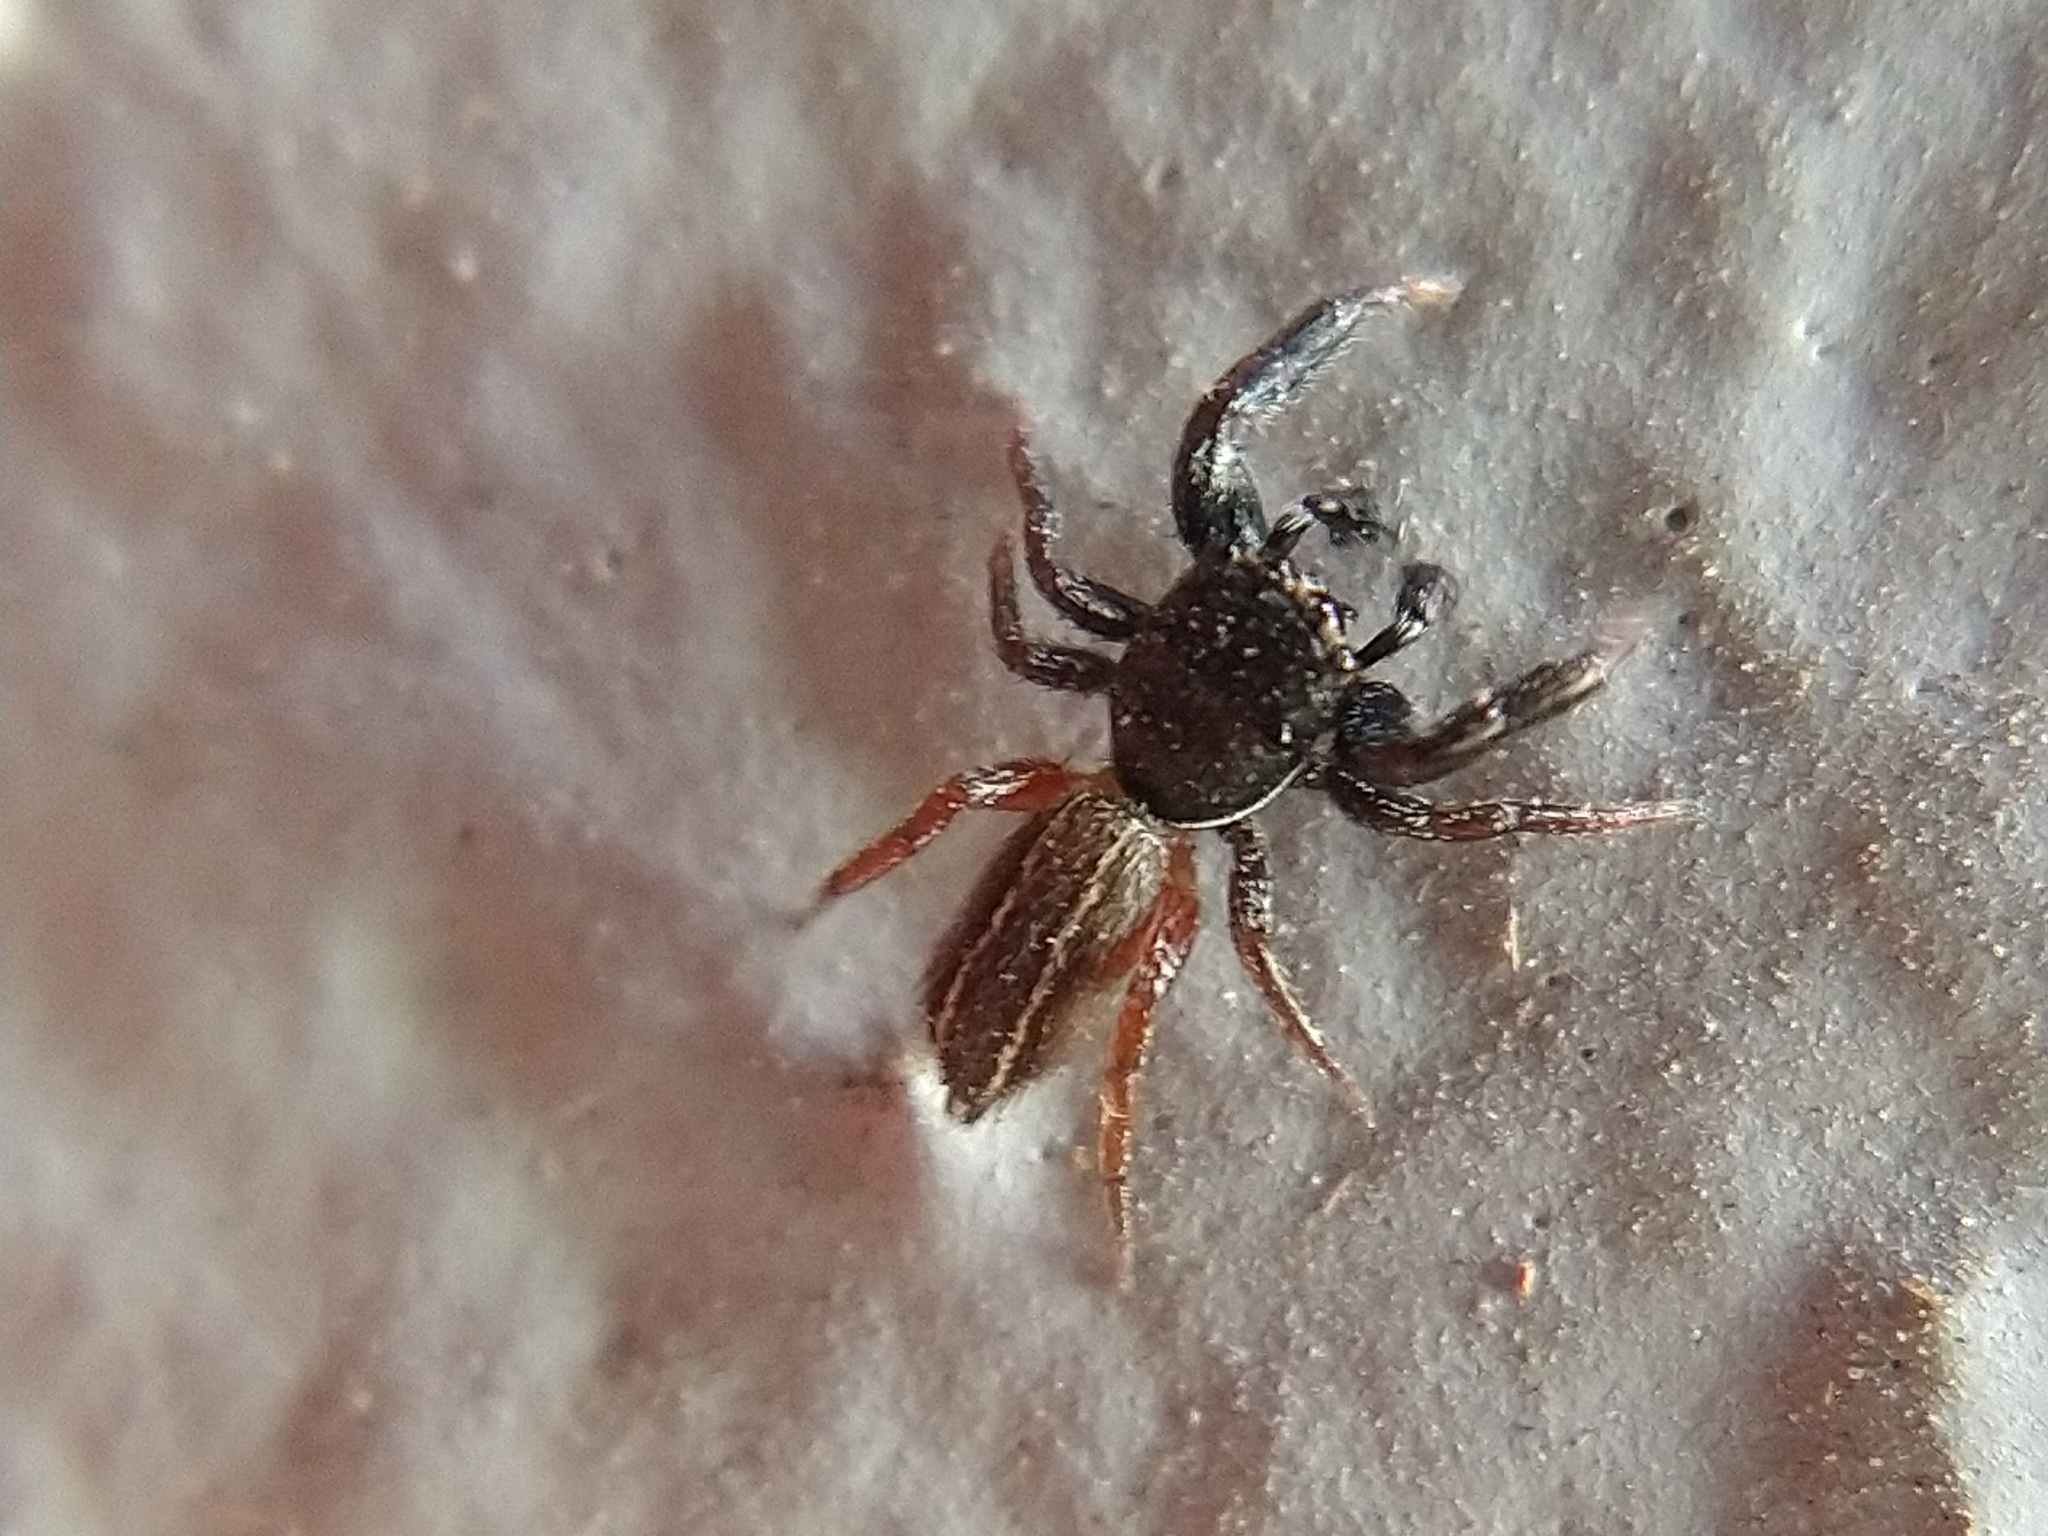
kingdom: Animalia
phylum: Arthropoda
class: Arachnida
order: Araneae
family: Salticidae
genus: Metacyrba
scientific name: Metacyrba taeniola
